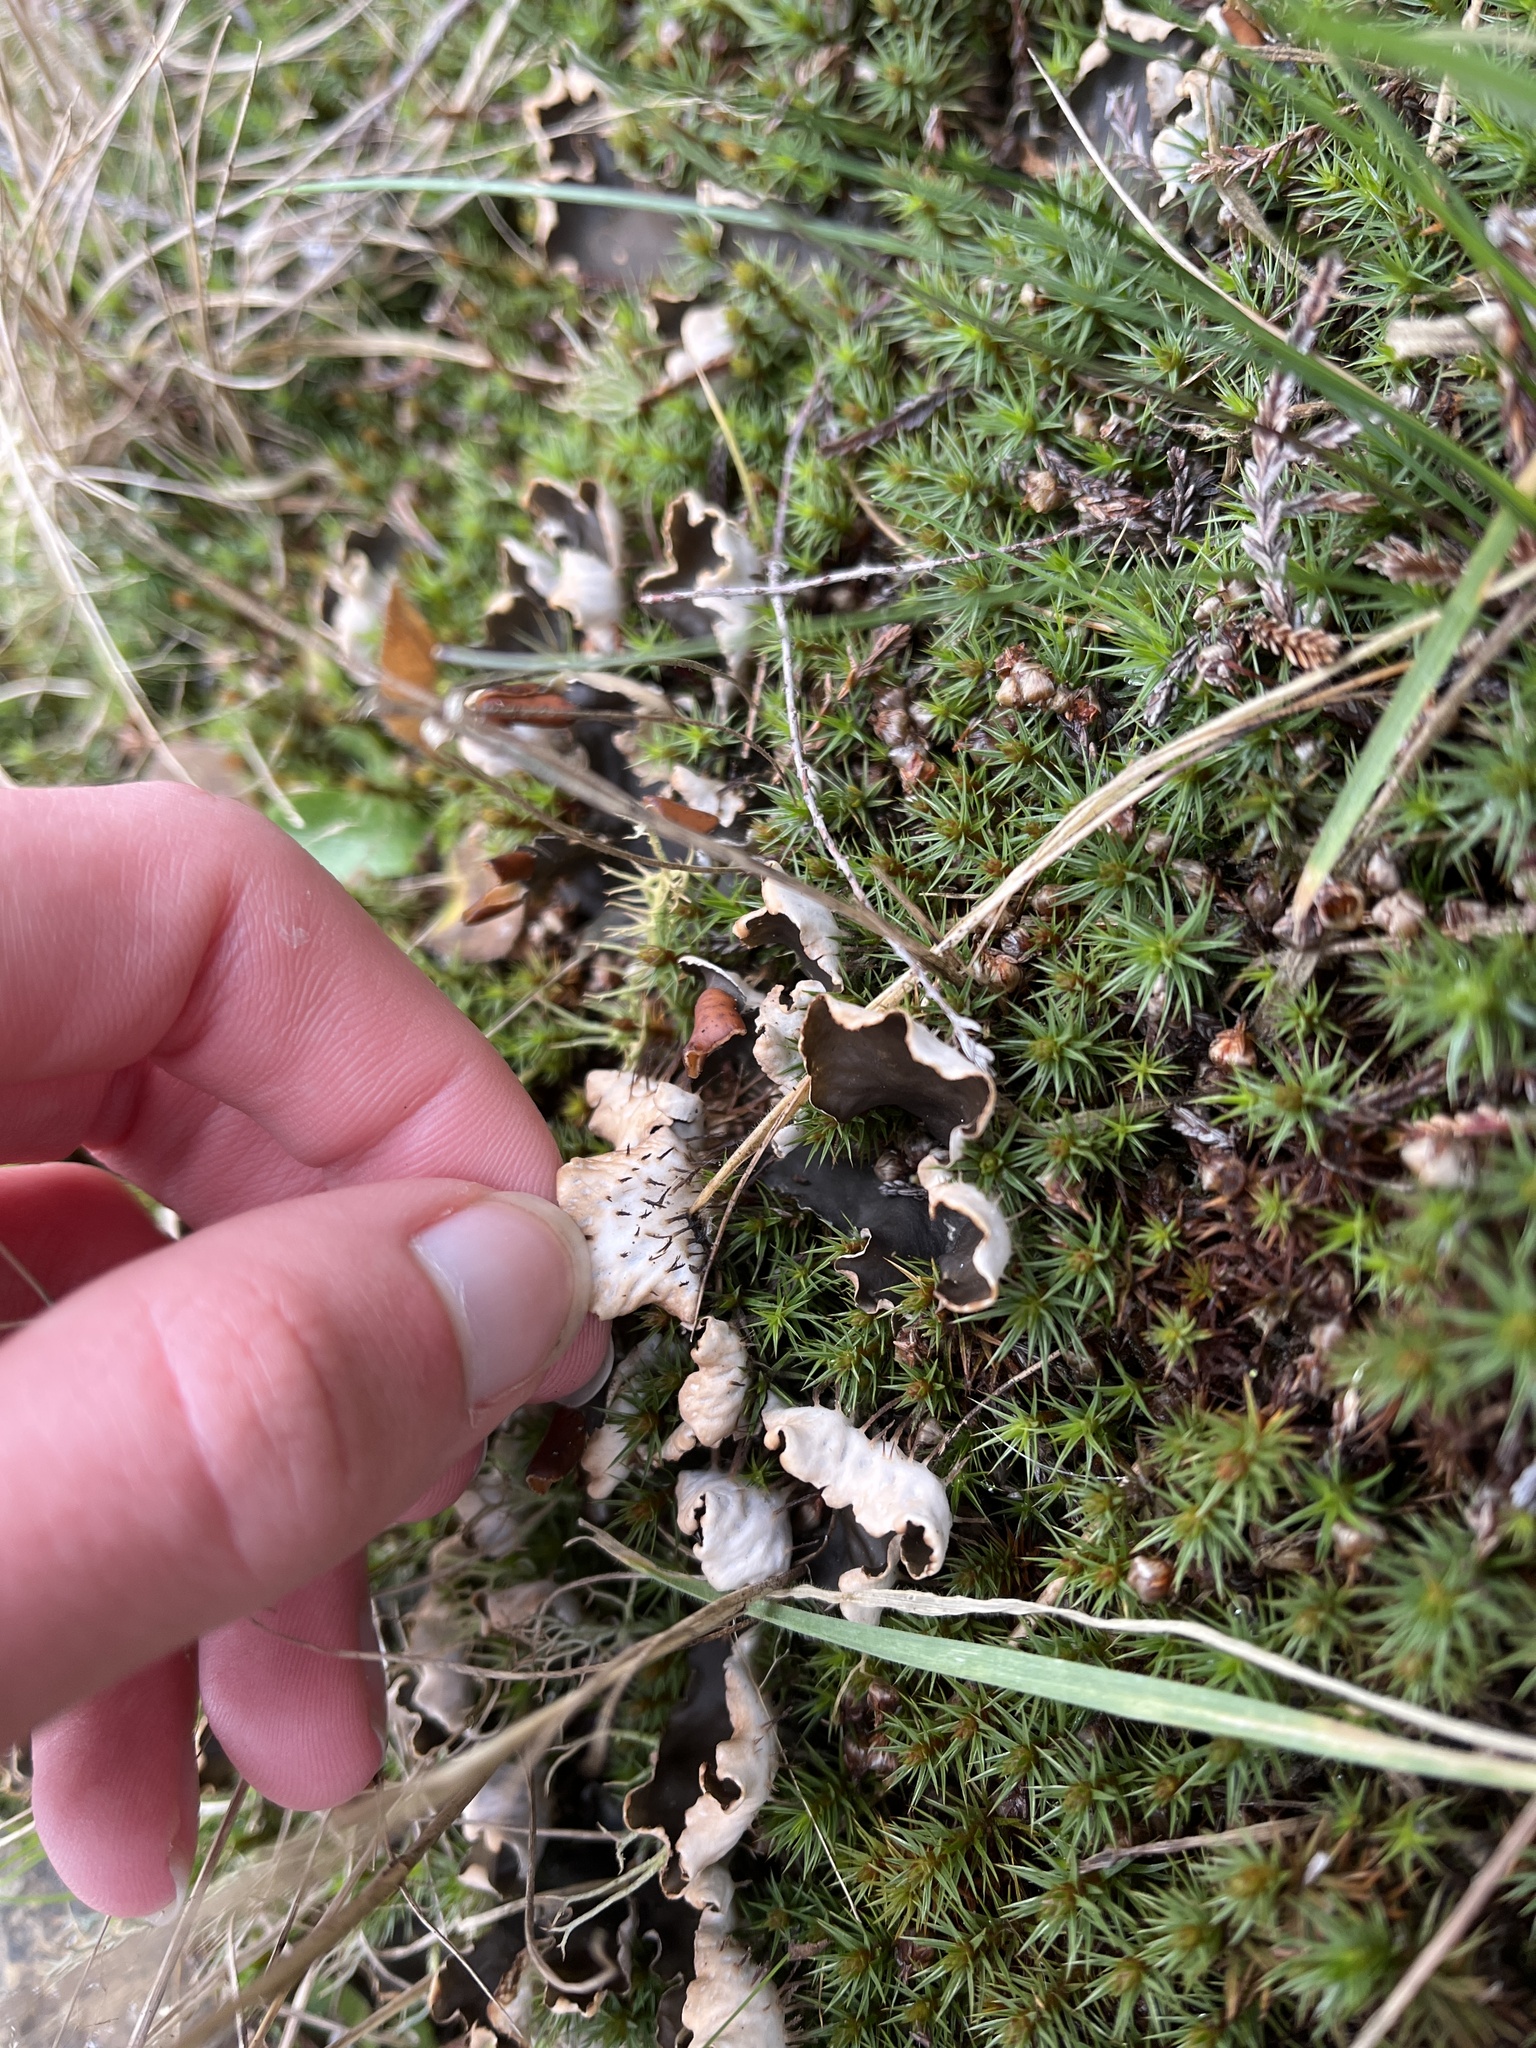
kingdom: Fungi
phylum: Ascomycota
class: Lecanoromycetes
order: Peltigerales
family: Peltigeraceae
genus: Peltigera
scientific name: Peltigera hymenina
